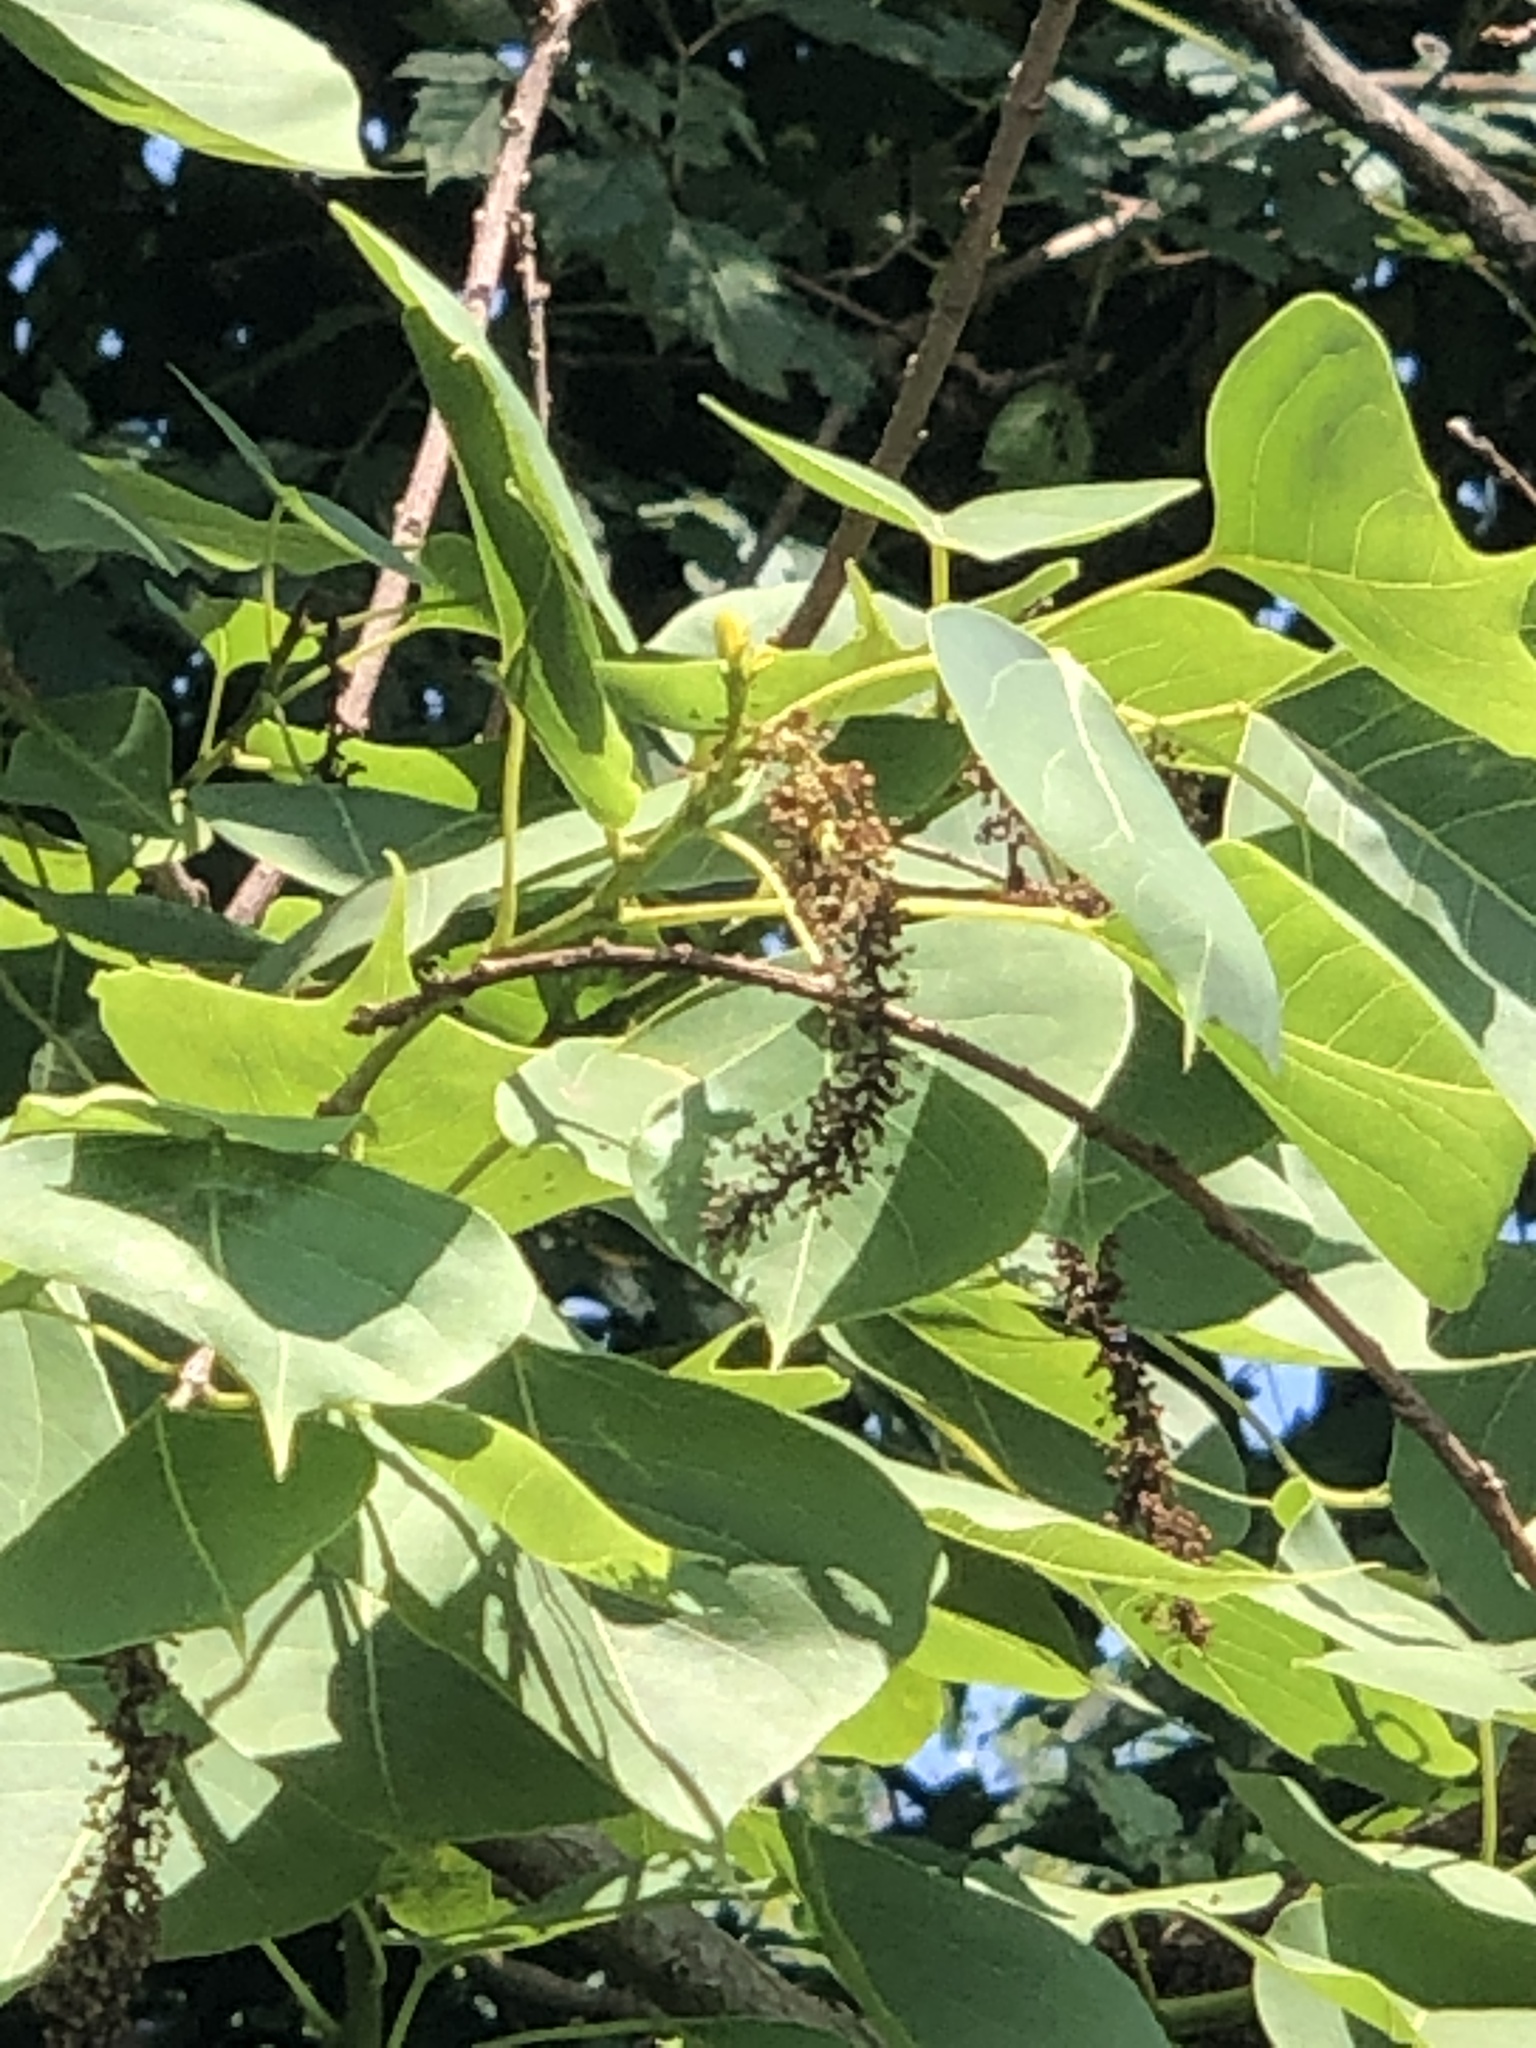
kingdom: Plantae
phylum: Tracheophyta
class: Magnoliopsida
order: Malpighiales
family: Euphorbiaceae
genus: Triadica
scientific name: Triadica sebifera
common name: Chinese tallow
